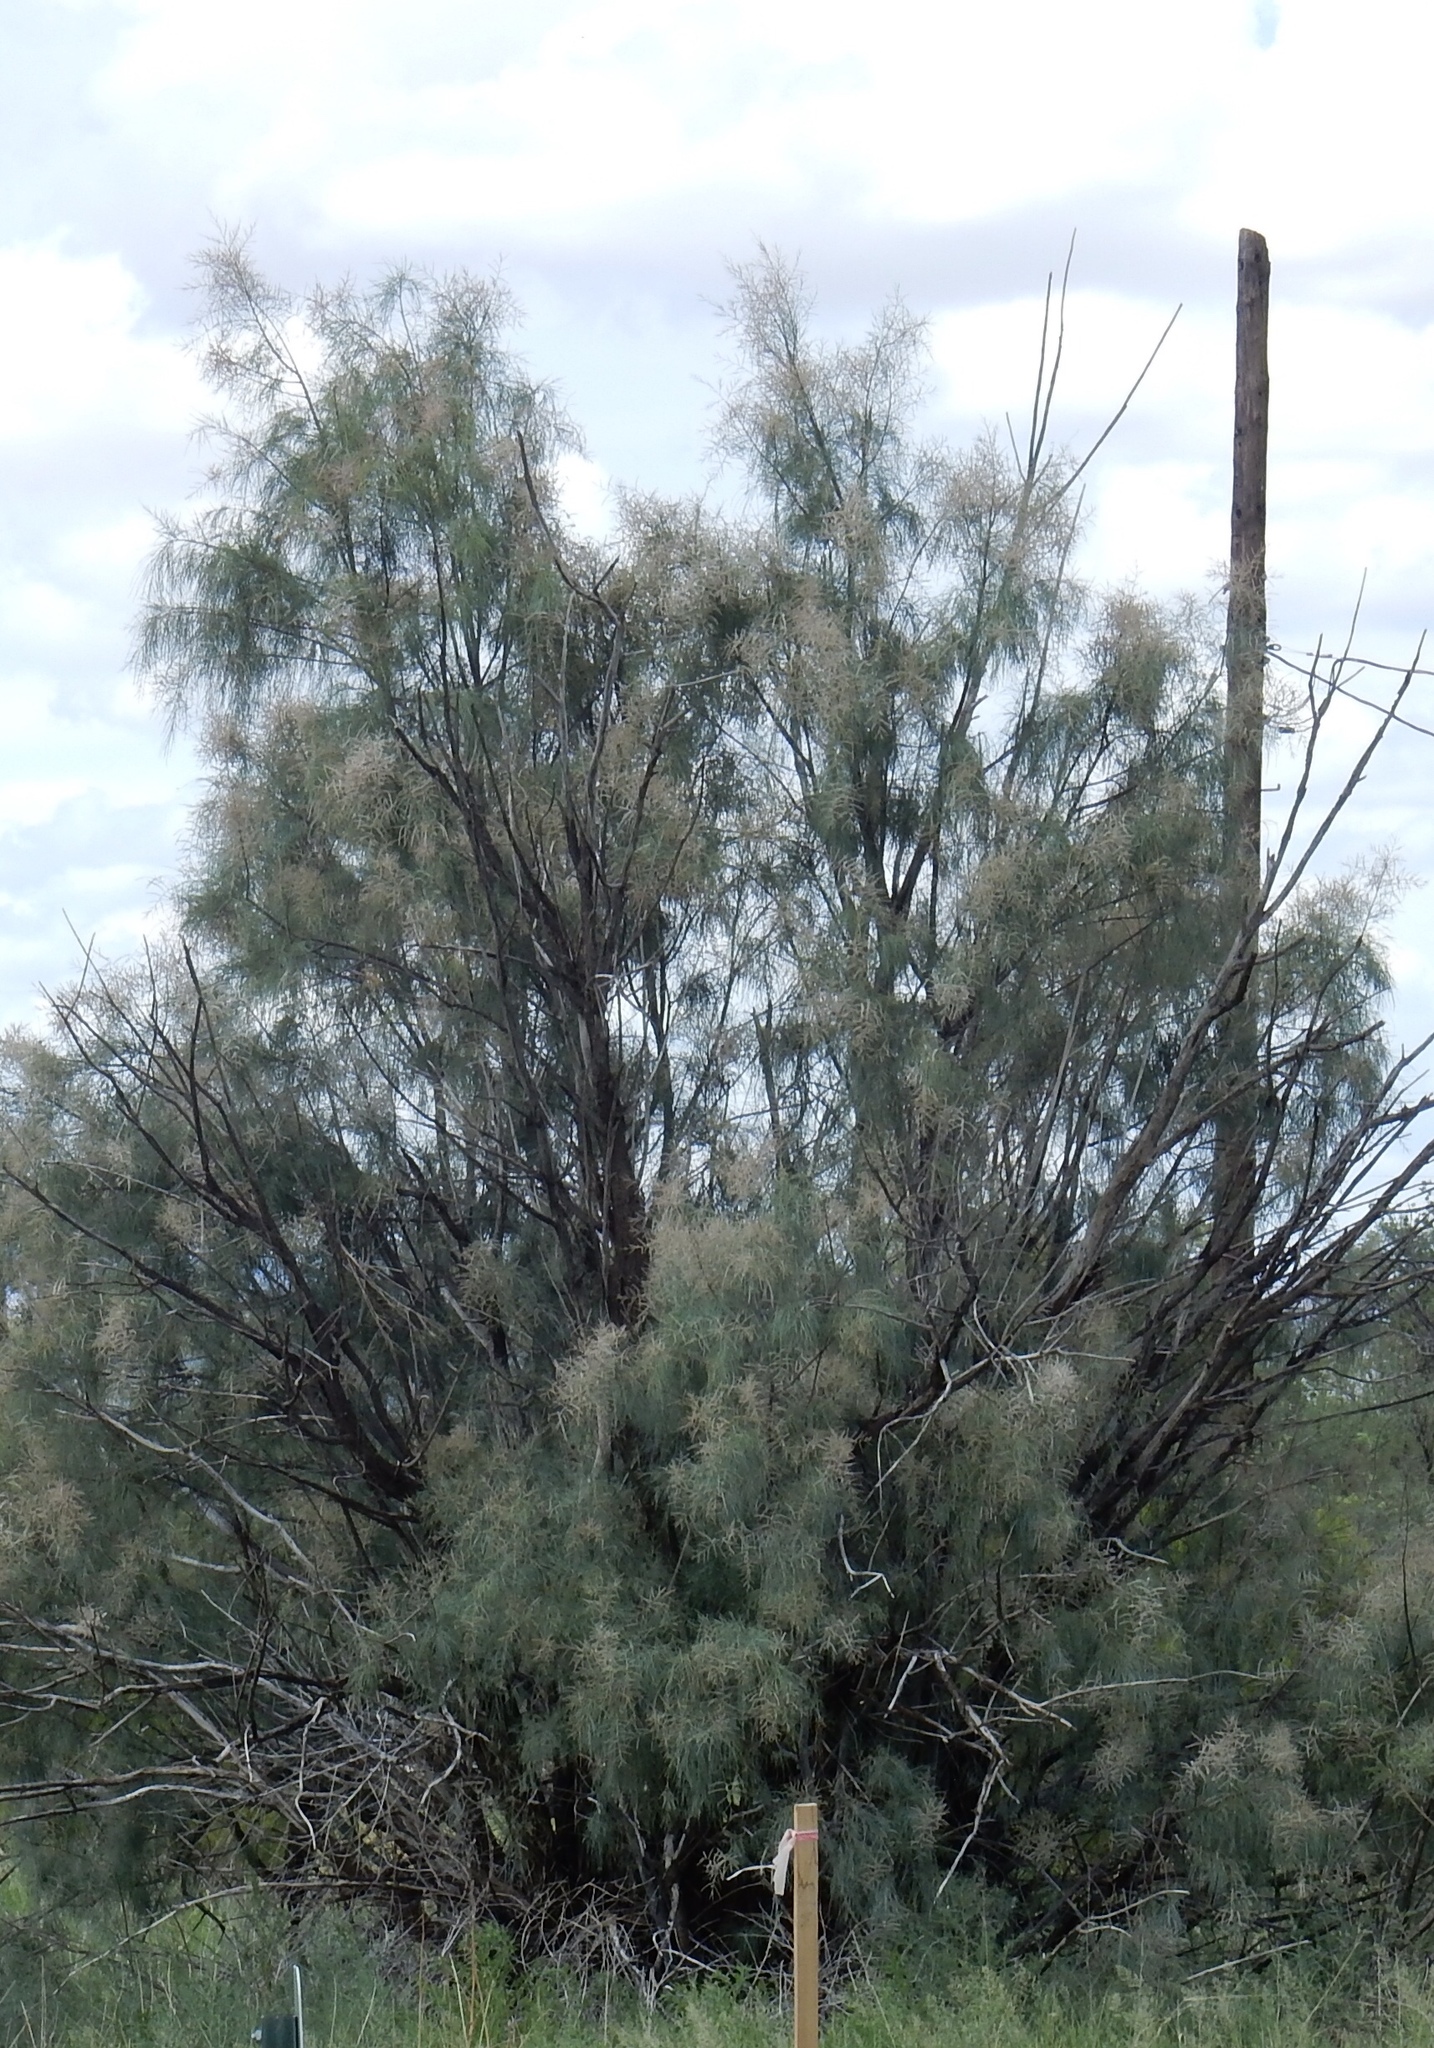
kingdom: Plantae
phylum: Tracheophyta
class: Magnoliopsida
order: Caryophyllales
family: Tamaricaceae
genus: Tamarix
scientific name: Tamarix aphylla
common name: Athel tamarisk
